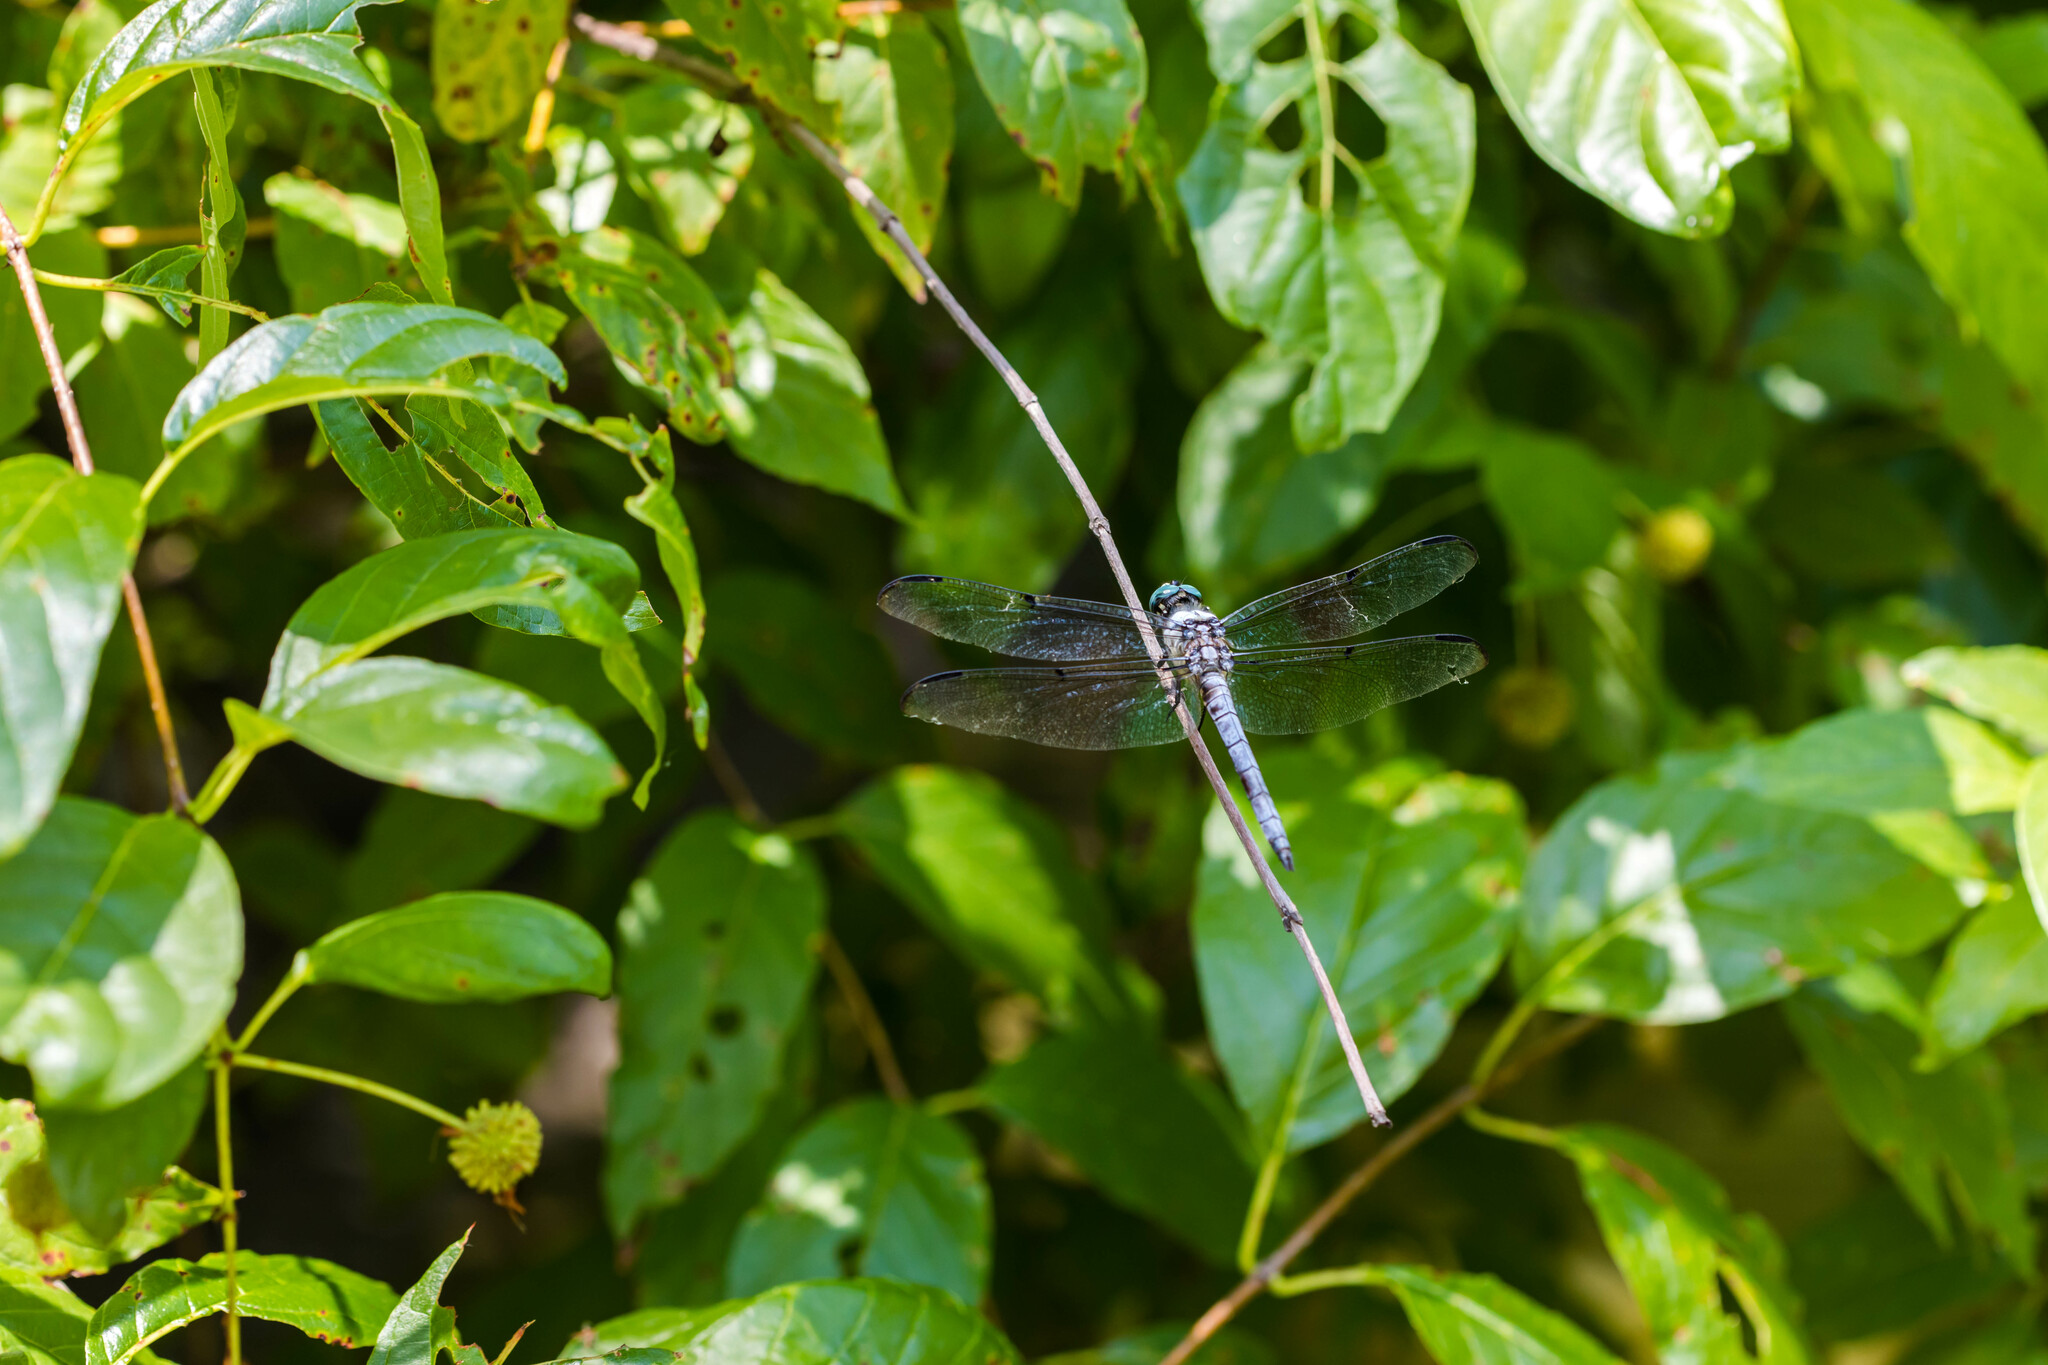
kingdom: Animalia
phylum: Arthropoda
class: Insecta
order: Odonata
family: Libellulidae
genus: Libellula
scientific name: Libellula vibrans
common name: Great blue skimmer
